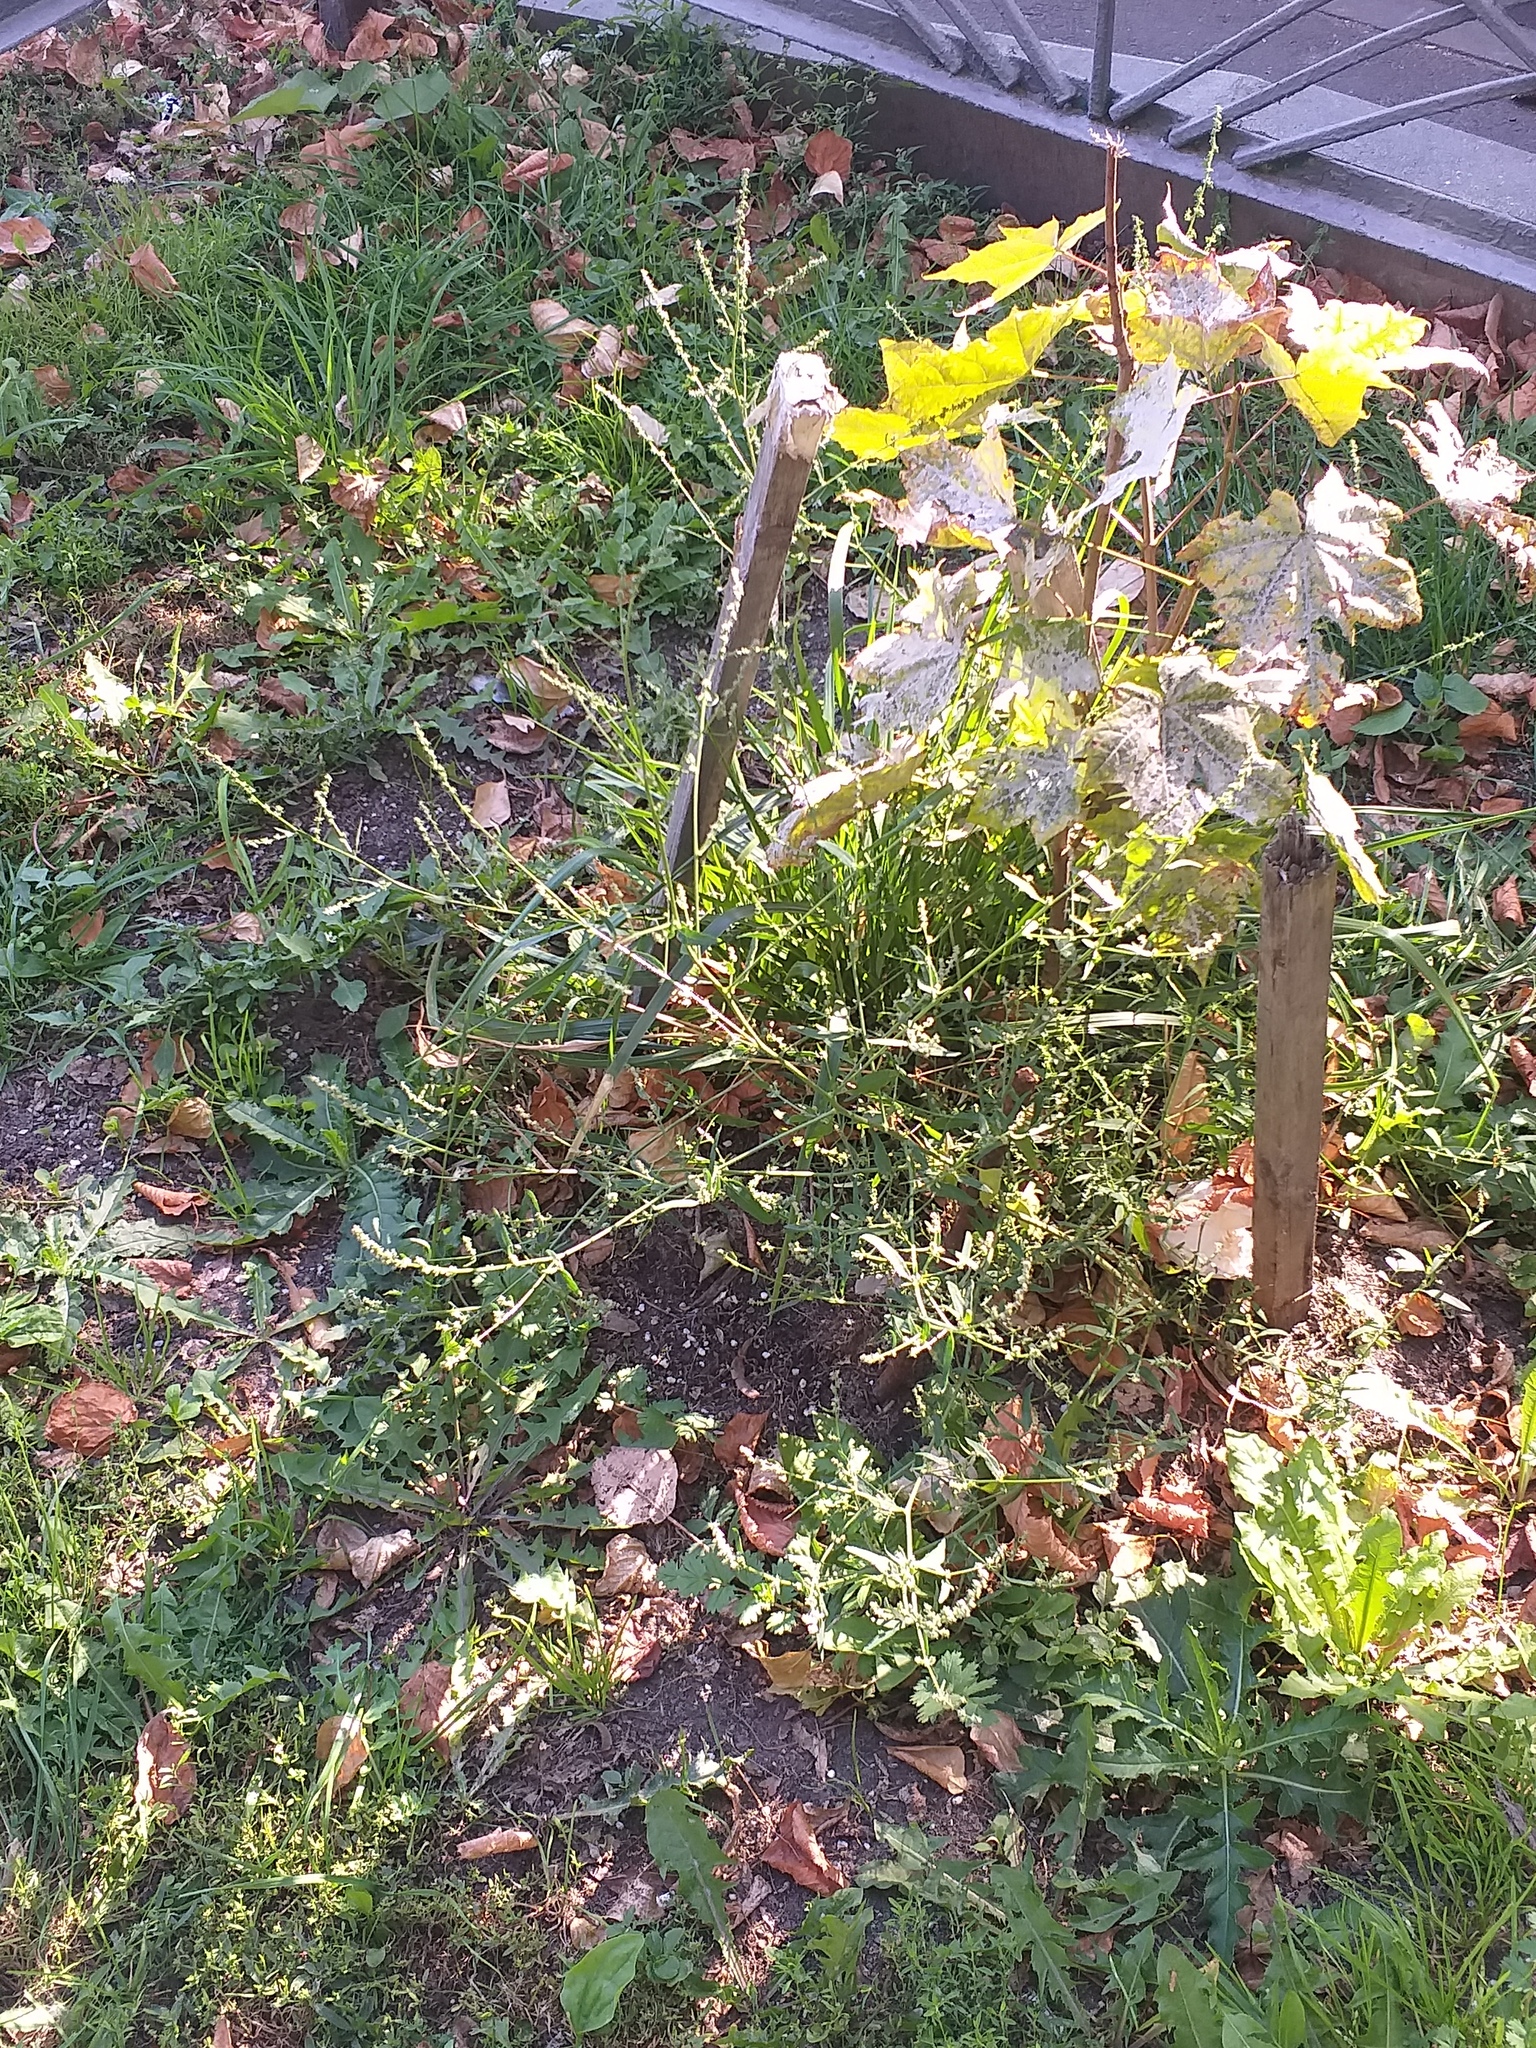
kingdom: Plantae
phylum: Tracheophyta
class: Magnoliopsida
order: Caryophyllales
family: Amaranthaceae
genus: Atriplex
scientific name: Atriplex patula
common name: Common orache
